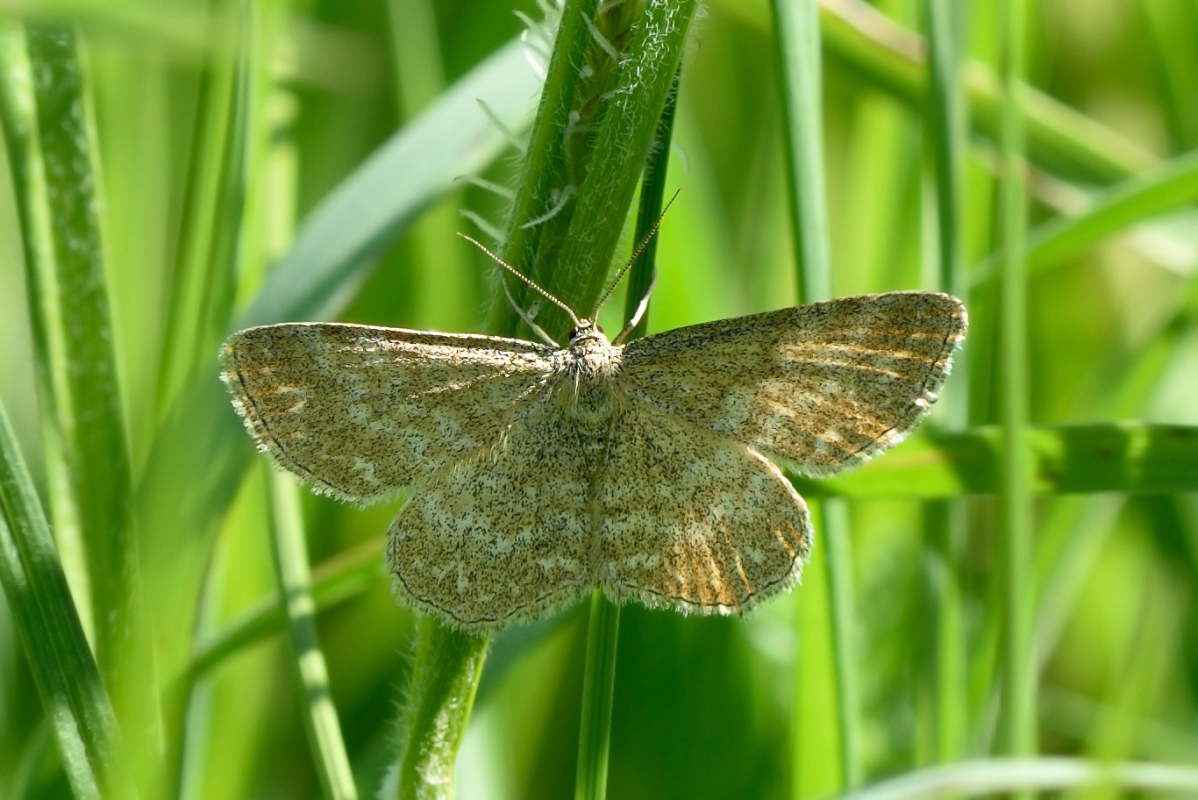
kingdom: Animalia
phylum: Arthropoda
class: Insecta
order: Lepidoptera
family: Geometridae
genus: Scopula
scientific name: Scopula immorata
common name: Lewes wave
